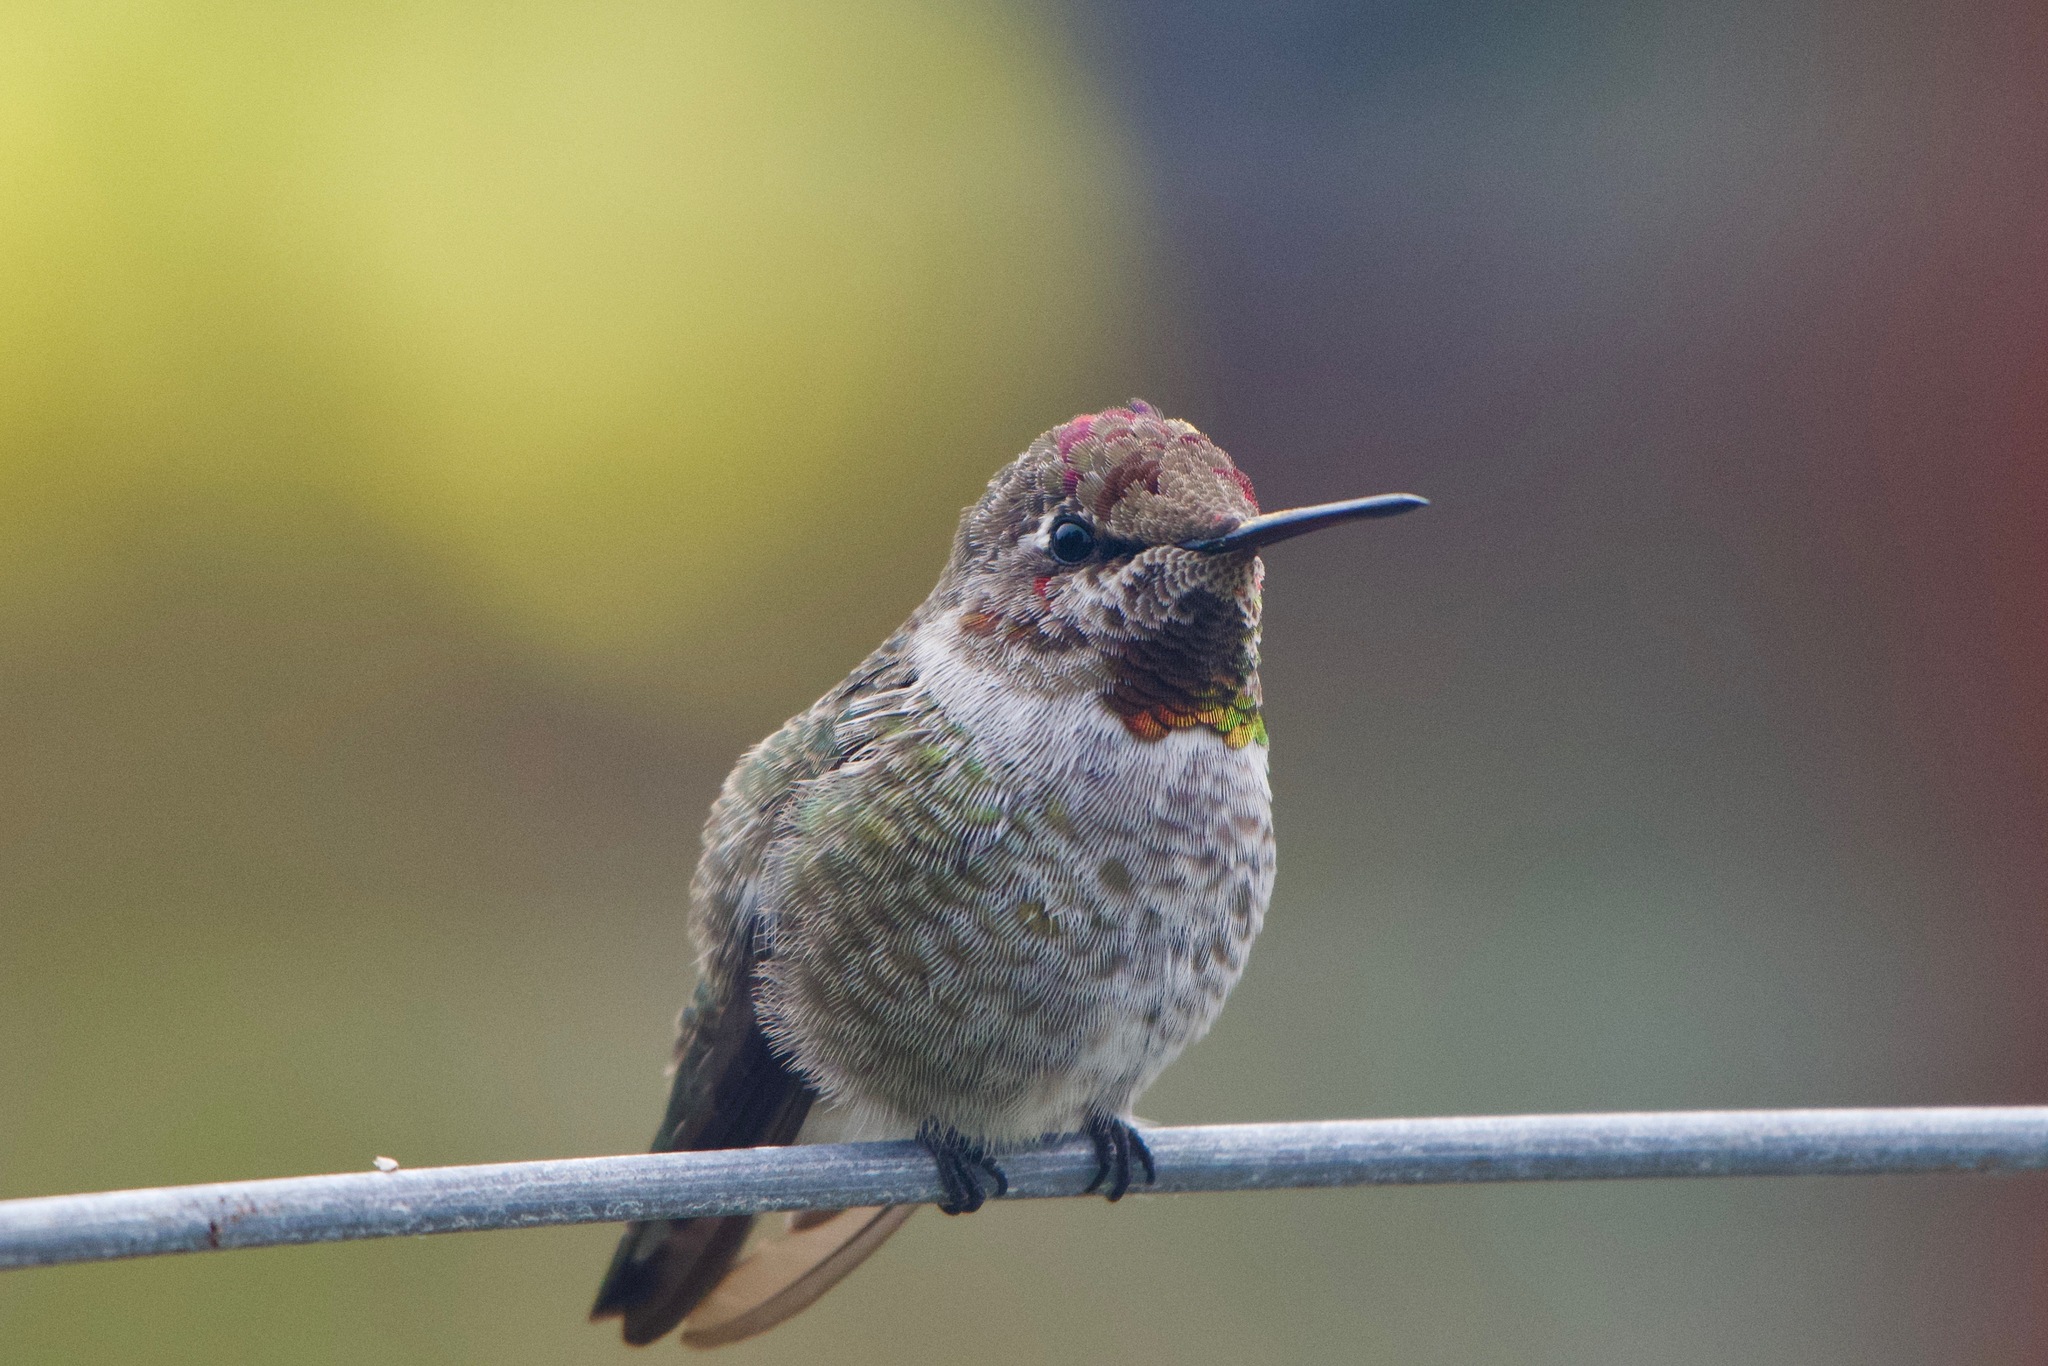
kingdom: Animalia
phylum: Chordata
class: Aves
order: Apodiformes
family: Trochilidae
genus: Calypte
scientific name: Calypte anna
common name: Anna's hummingbird
